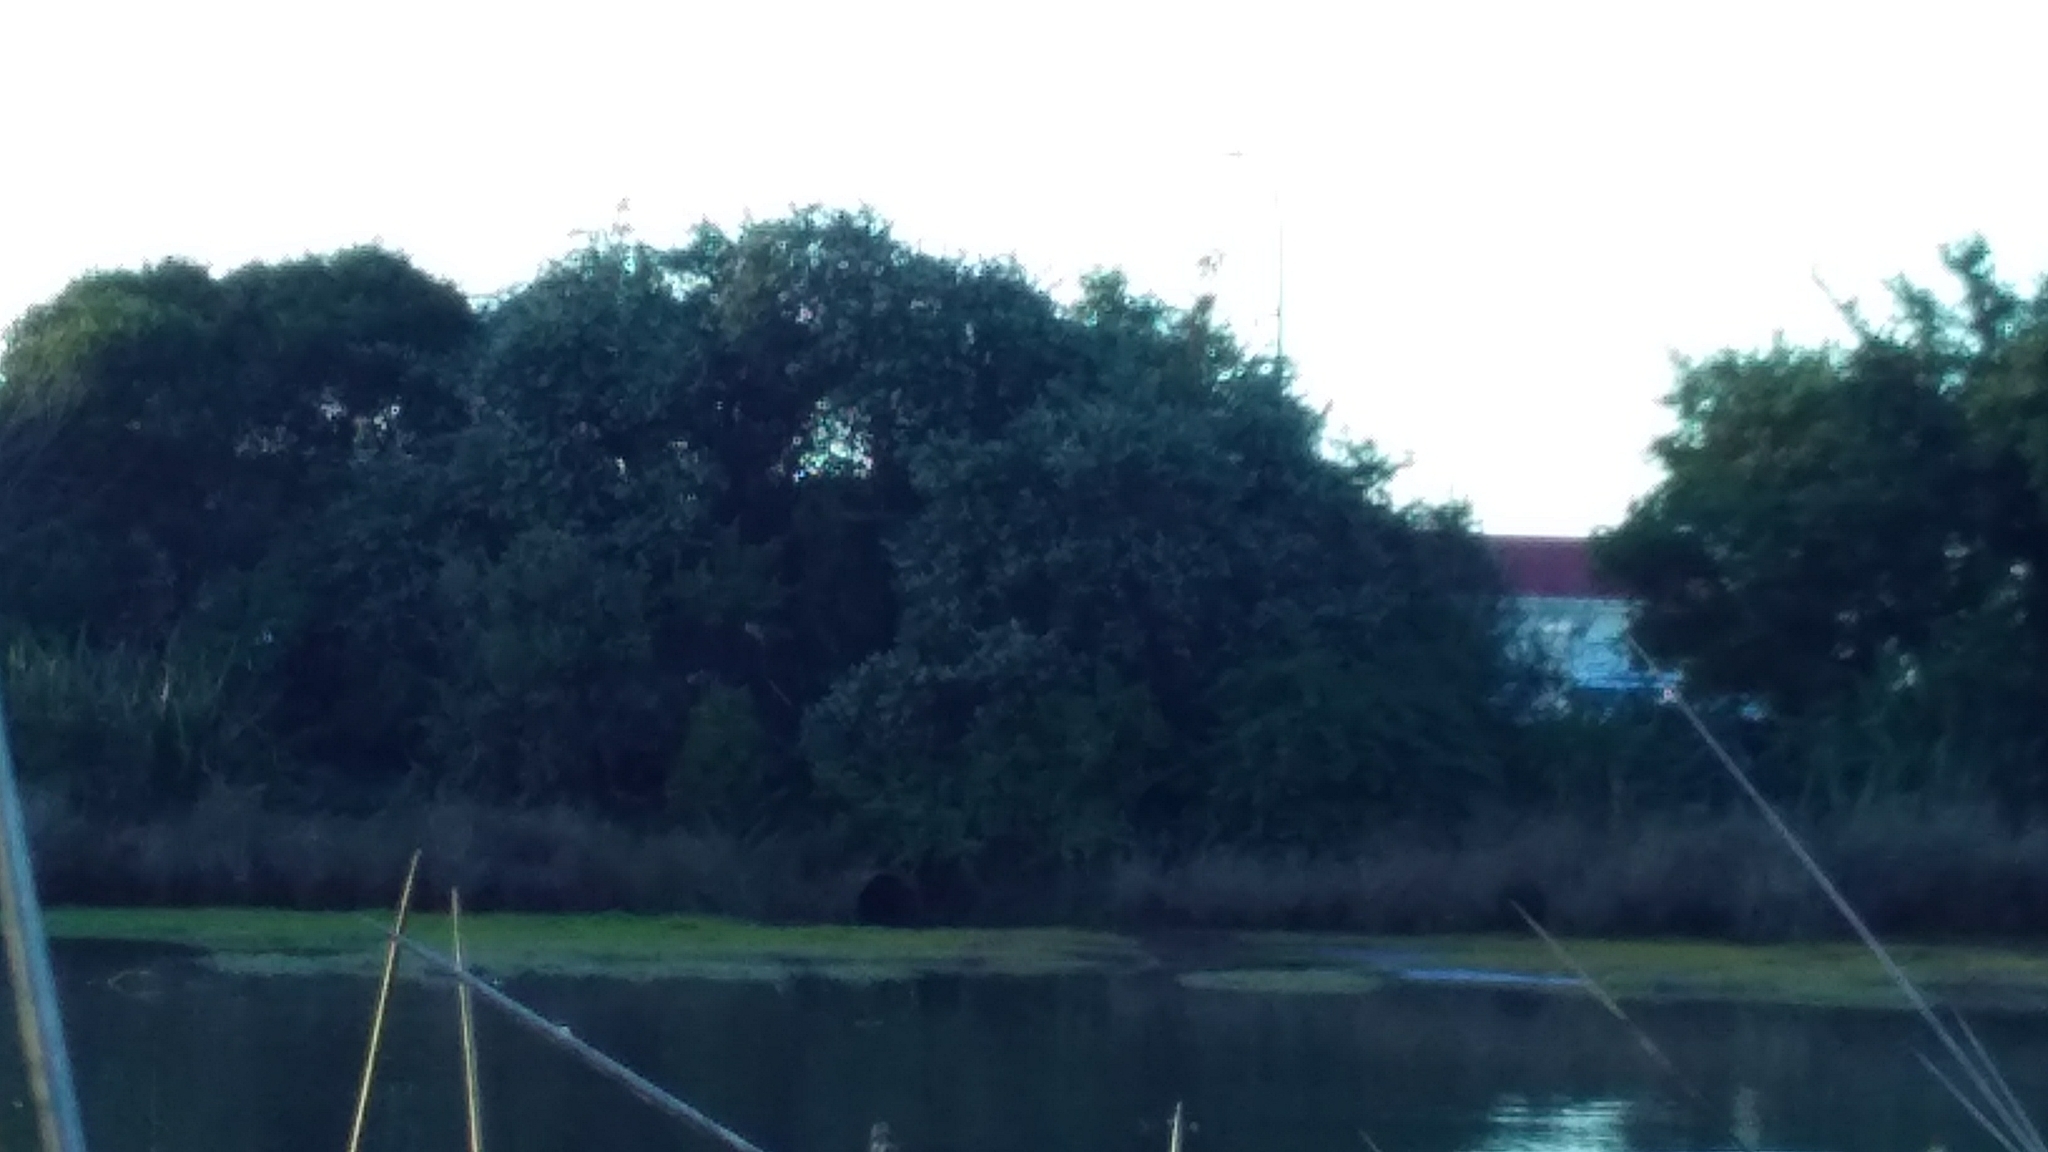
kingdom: Animalia
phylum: Chordata
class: Aves
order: Anseriformes
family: Anatidae
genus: Spatula
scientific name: Spatula rhynchotis
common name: Australian shoveler
